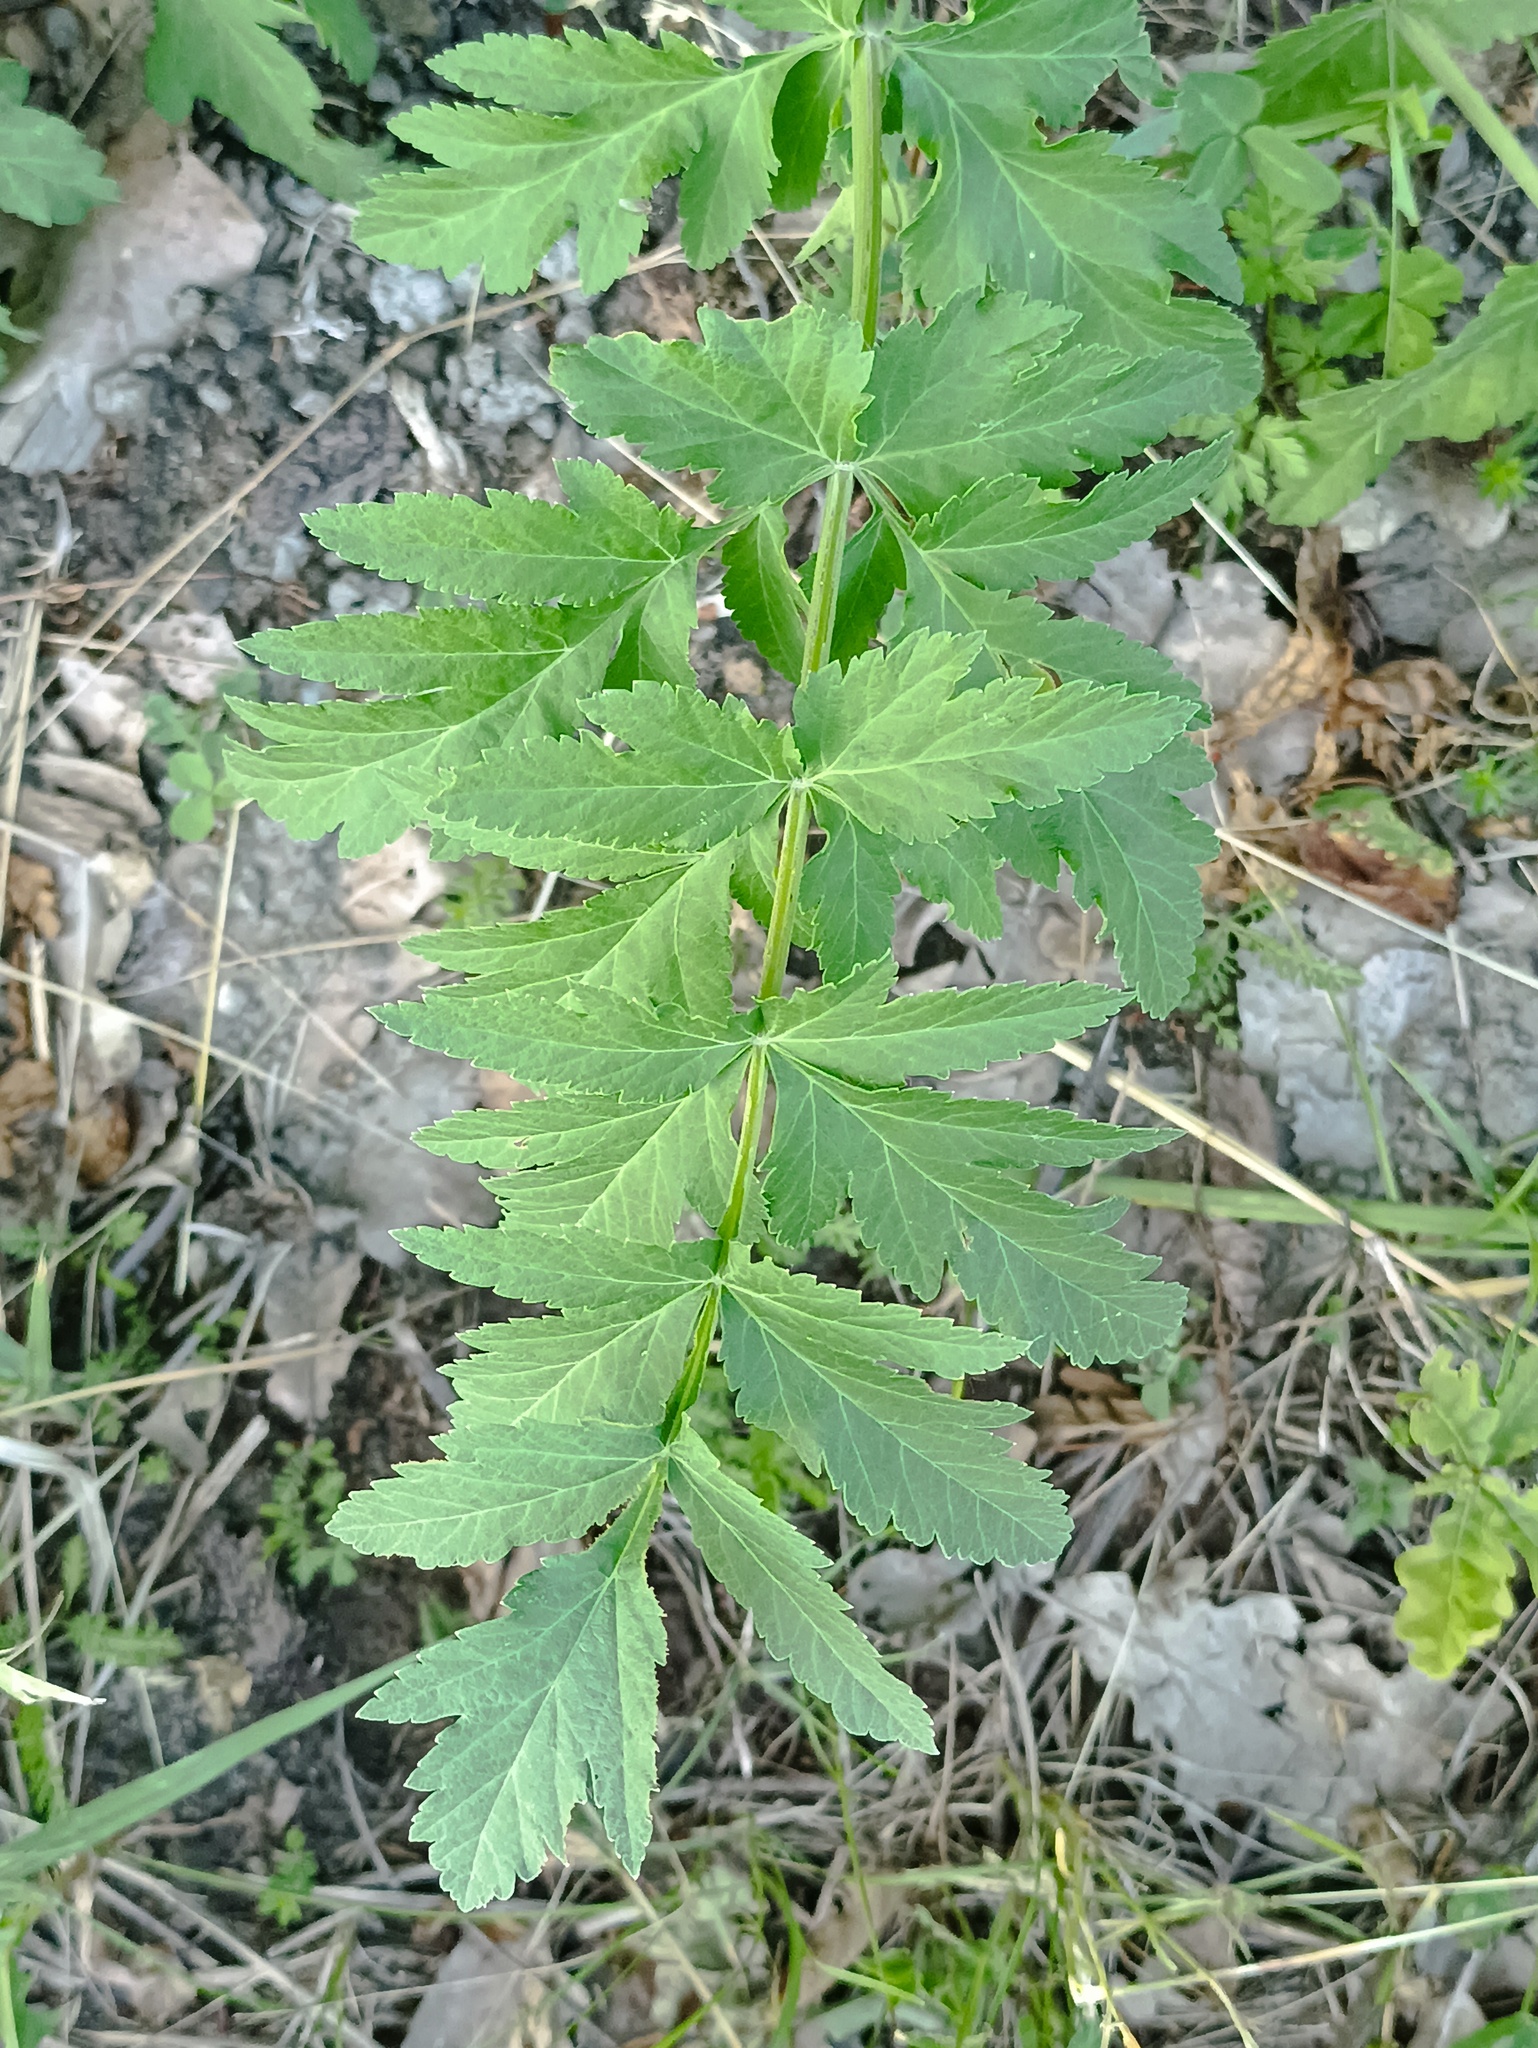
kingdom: Plantae
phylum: Tracheophyta
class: Magnoliopsida
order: Apiales
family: Apiaceae
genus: Pastinaca
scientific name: Pastinaca sativa
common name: Wild parsnip
